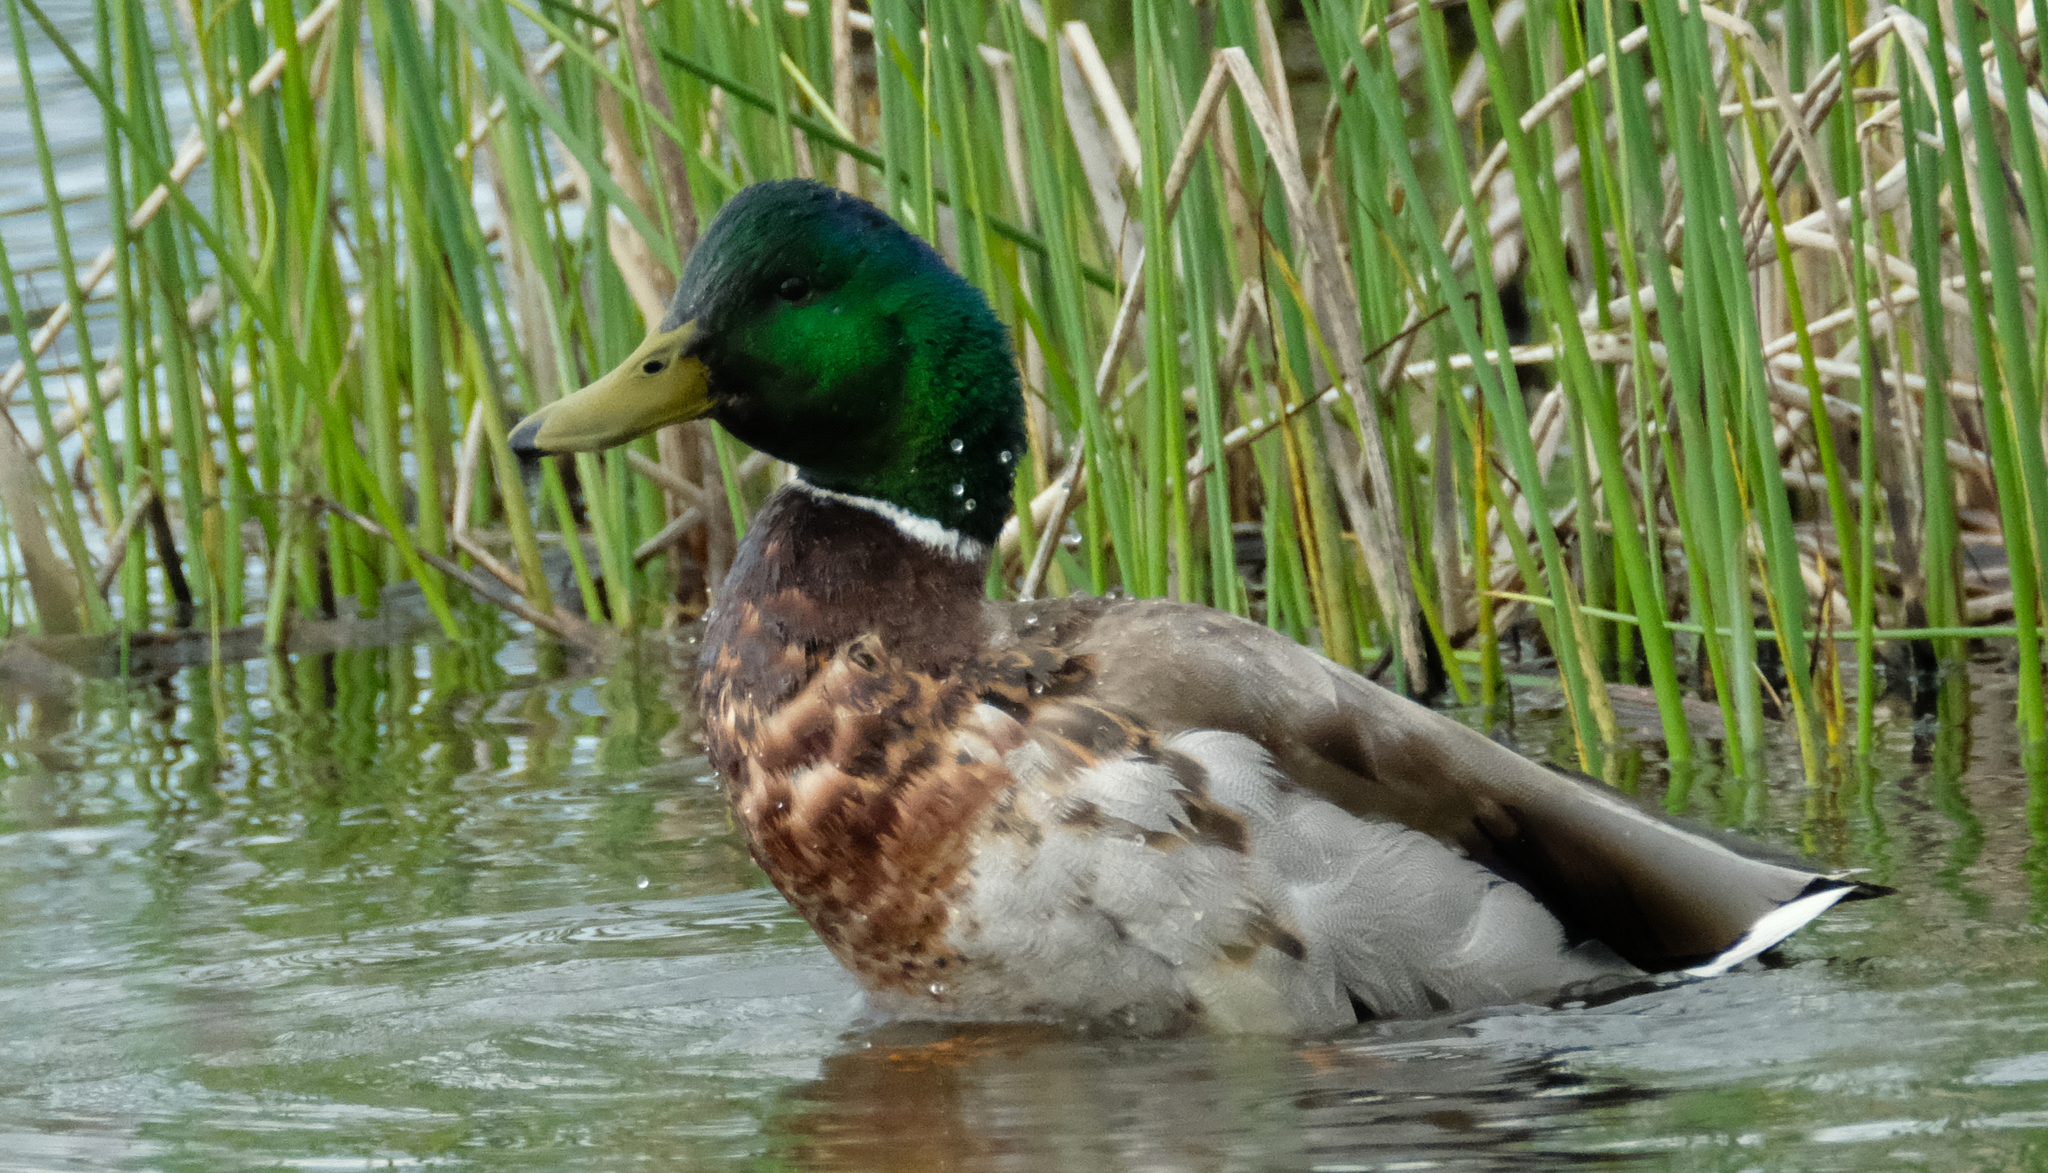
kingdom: Animalia
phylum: Chordata
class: Aves
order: Anseriformes
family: Anatidae
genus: Anas
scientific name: Anas platyrhynchos
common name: Mallard
